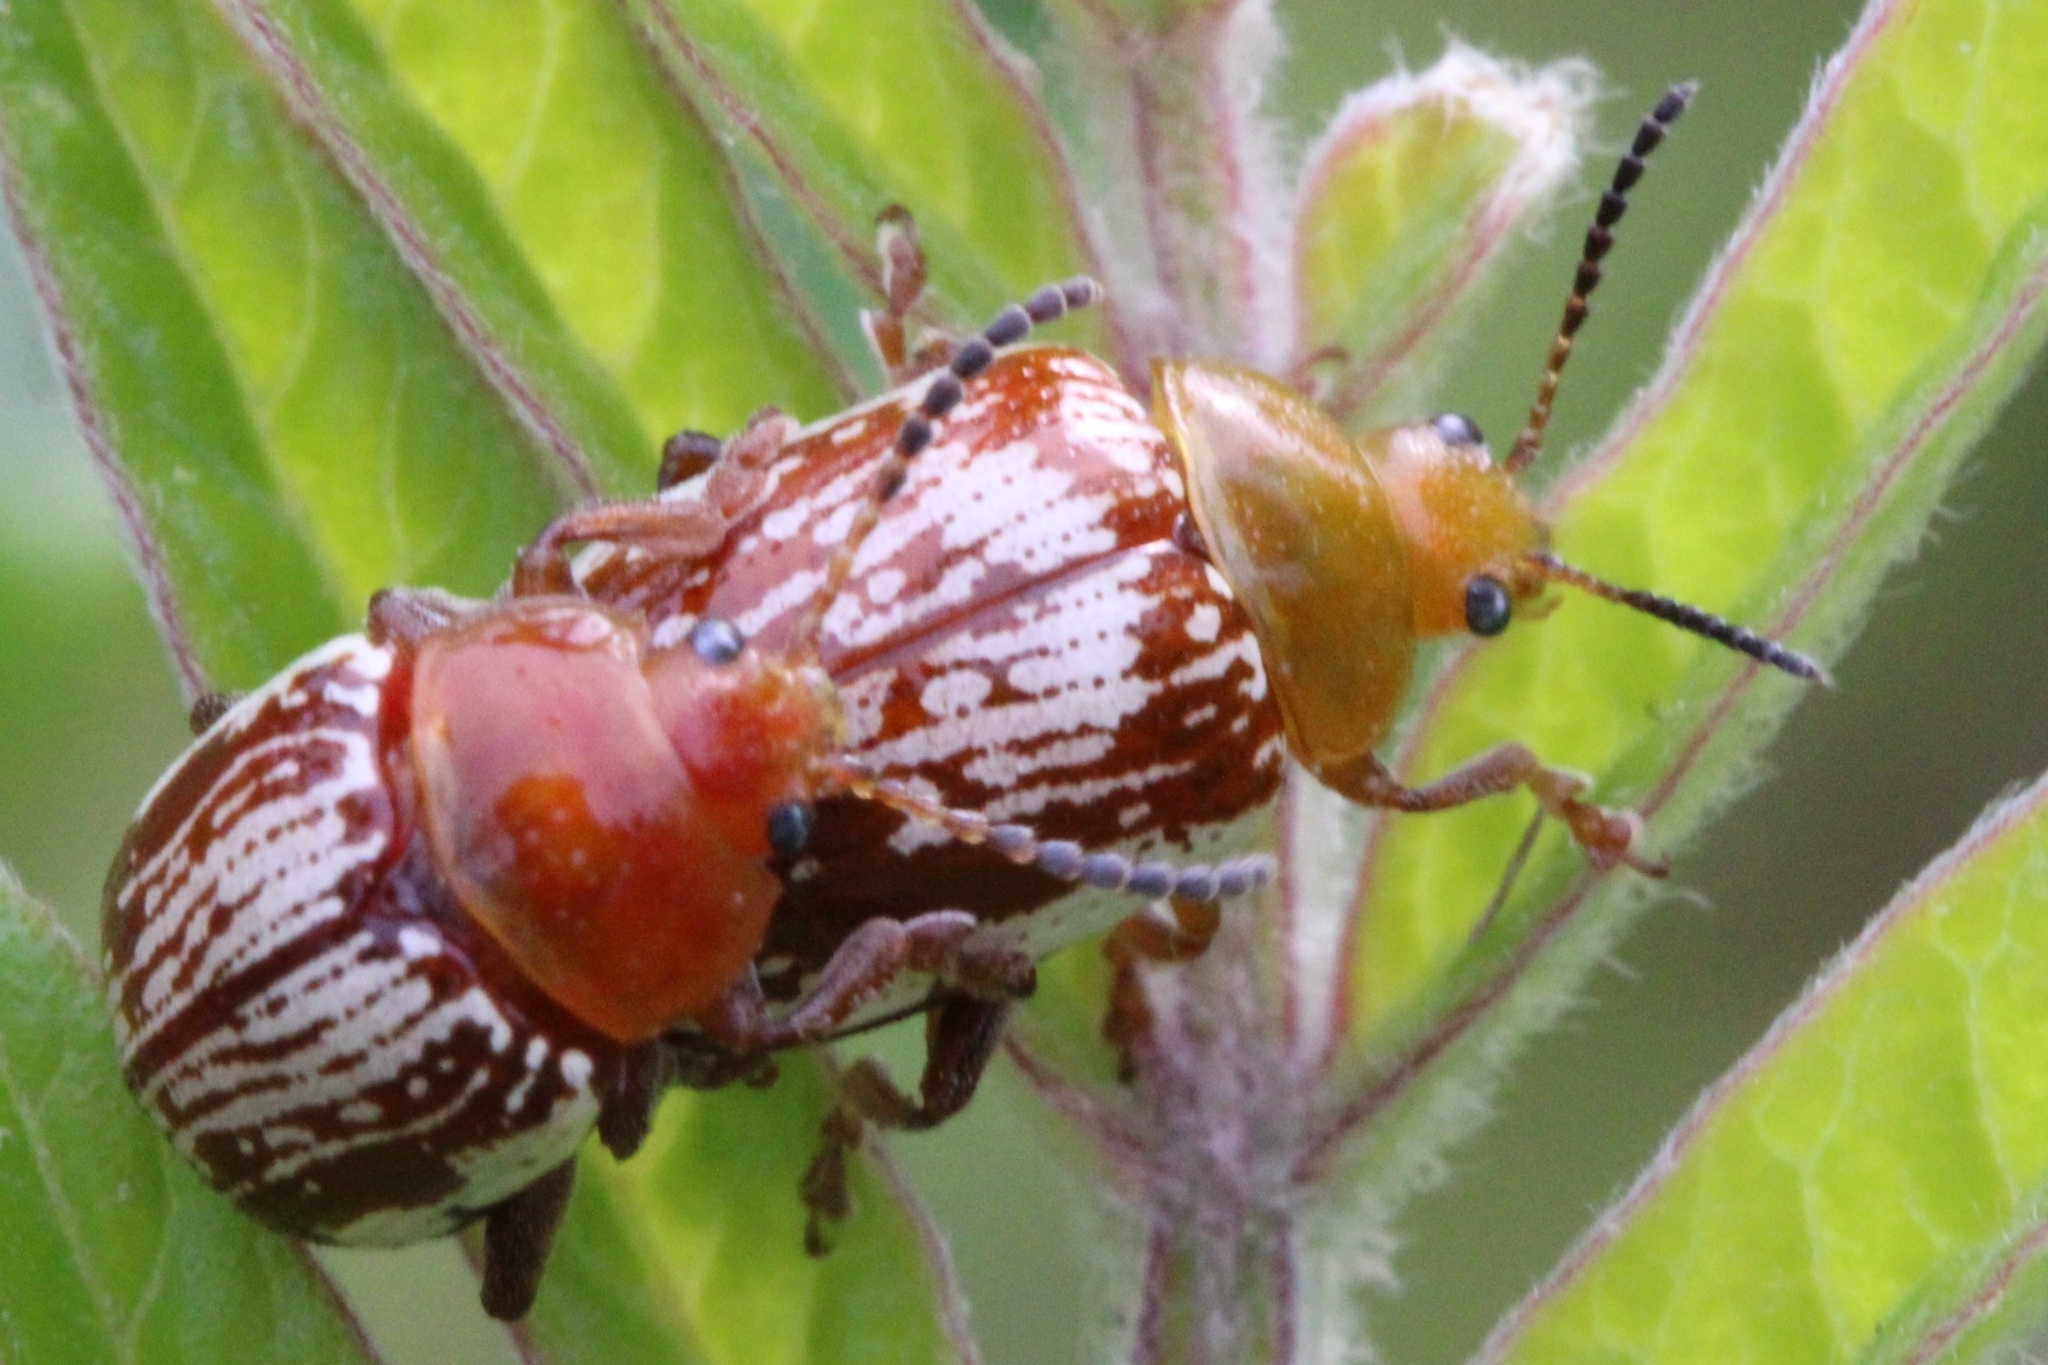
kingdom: Animalia
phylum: Arthropoda
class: Insecta
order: Coleoptera
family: Chrysomelidae
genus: Blepharida
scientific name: Blepharida rhois
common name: Sumac flea beetle
